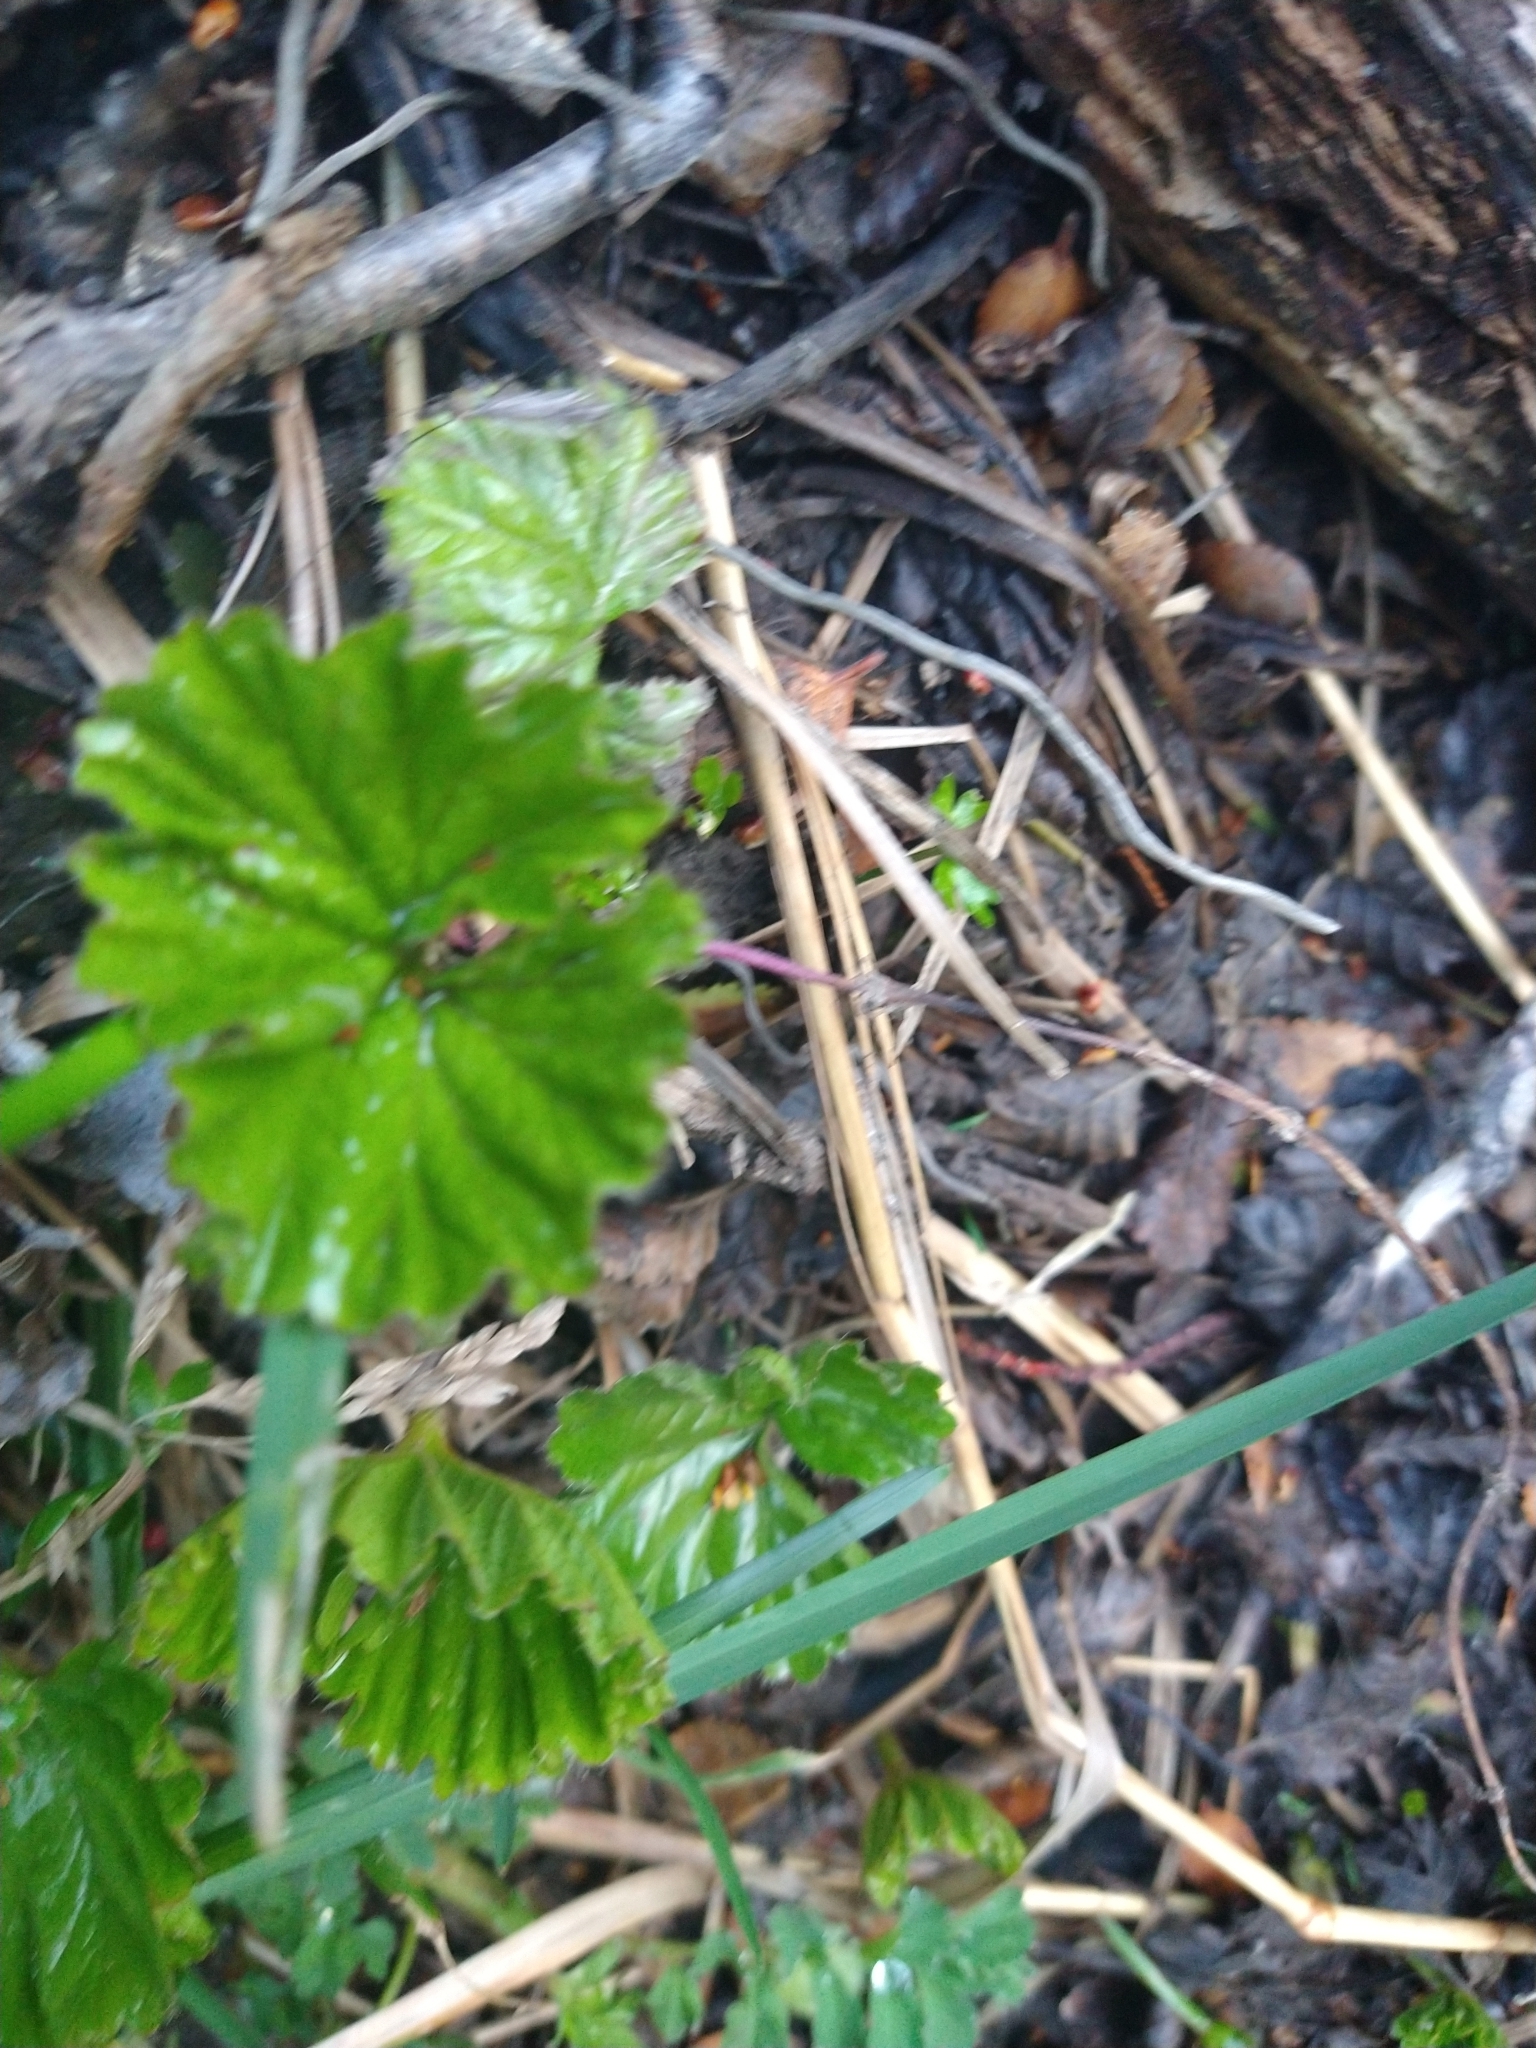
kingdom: Plantae
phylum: Tracheophyta
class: Magnoliopsida
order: Gunnerales
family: Gunneraceae
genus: Gunnera
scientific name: Gunnera magellanica
